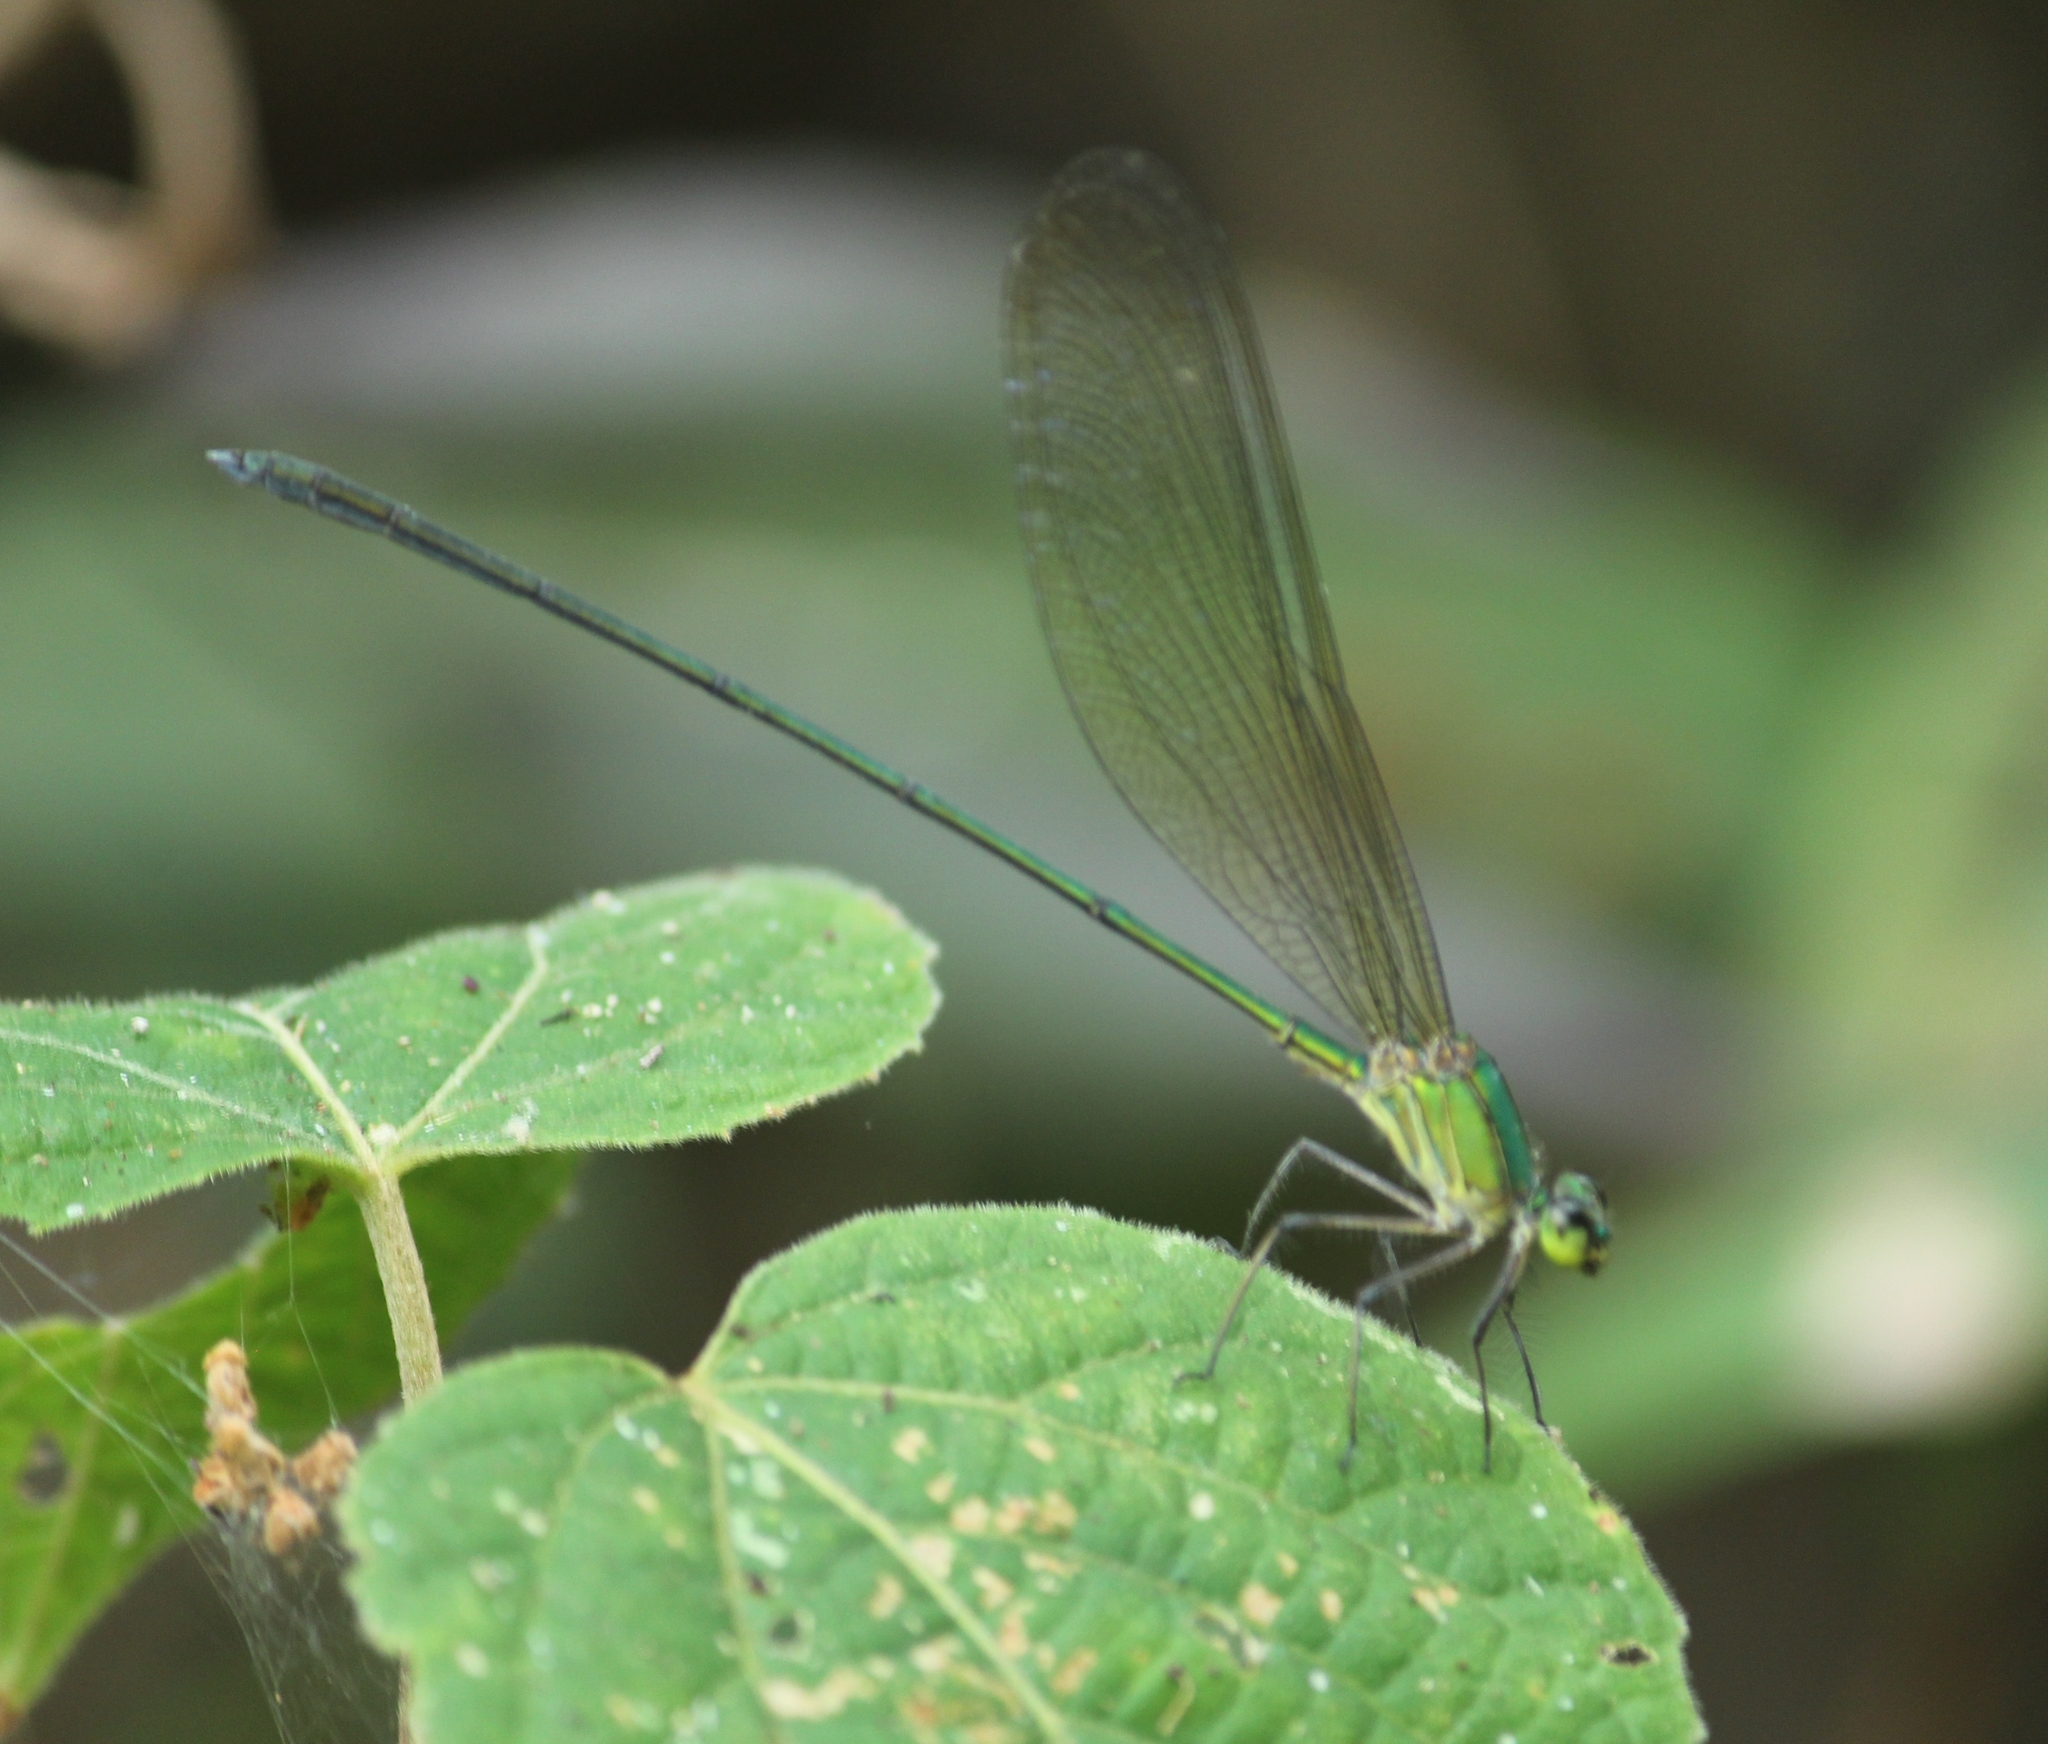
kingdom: Animalia
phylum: Arthropoda
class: Insecta
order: Odonata
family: Calopterygidae
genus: Vestalis
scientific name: Vestalis gracilis
